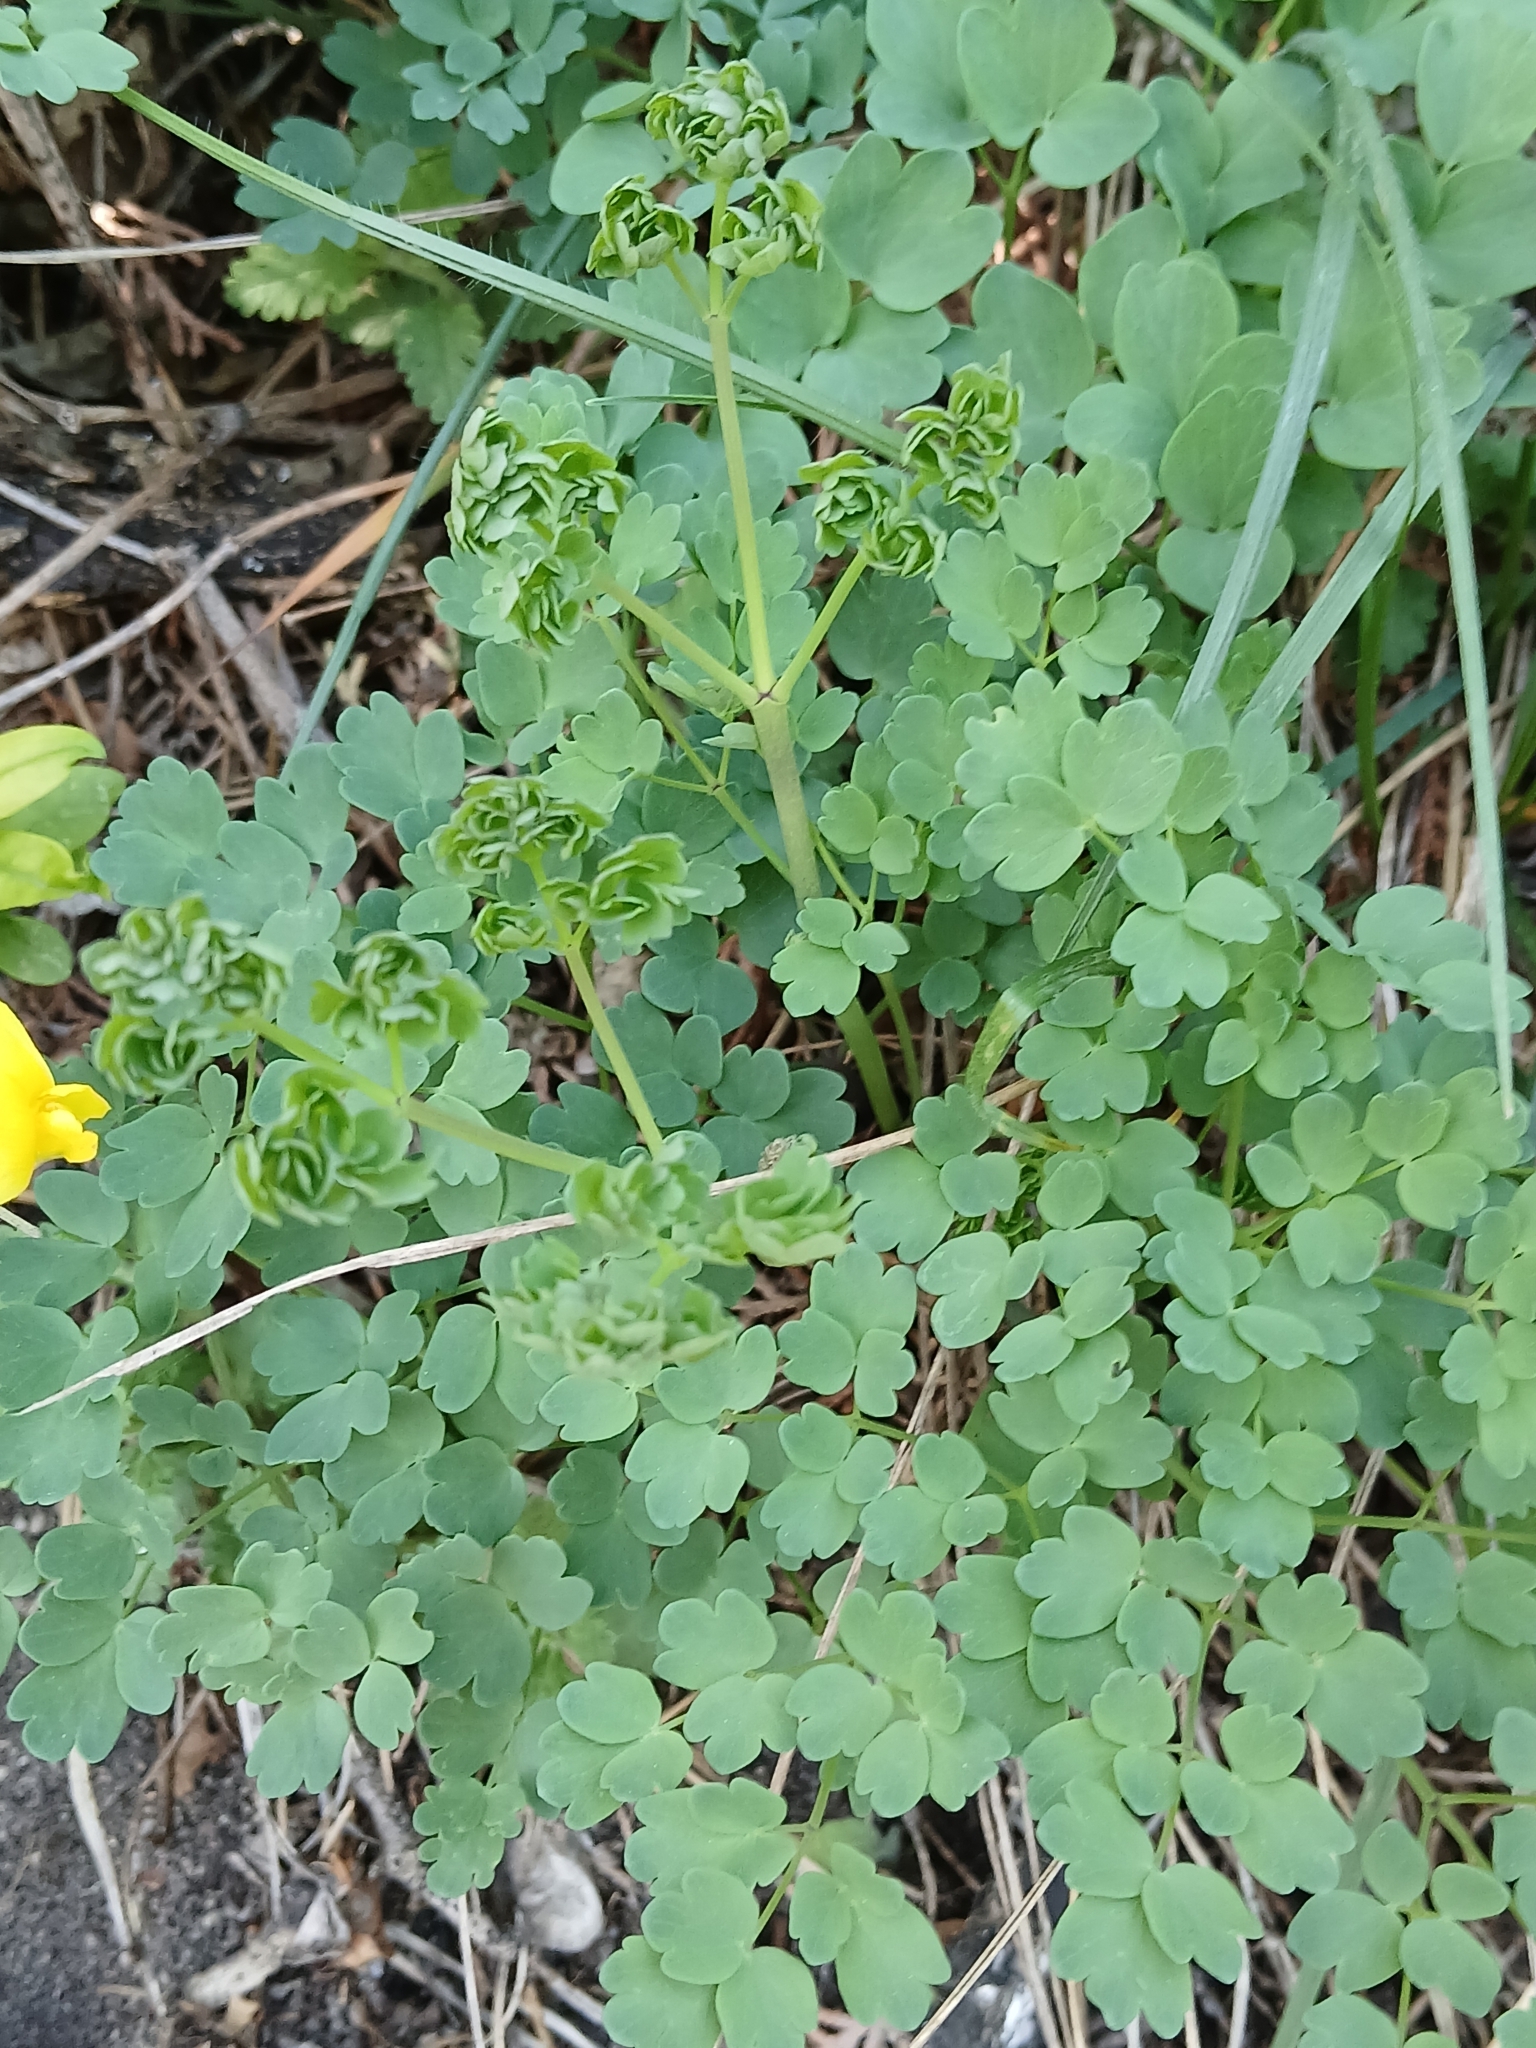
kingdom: Plantae
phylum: Tracheophyta
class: Magnoliopsida
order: Ranunculales
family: Ranunculaceae
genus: Thalictrum
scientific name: Thalictrum minus
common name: Lesser meadow-rue
